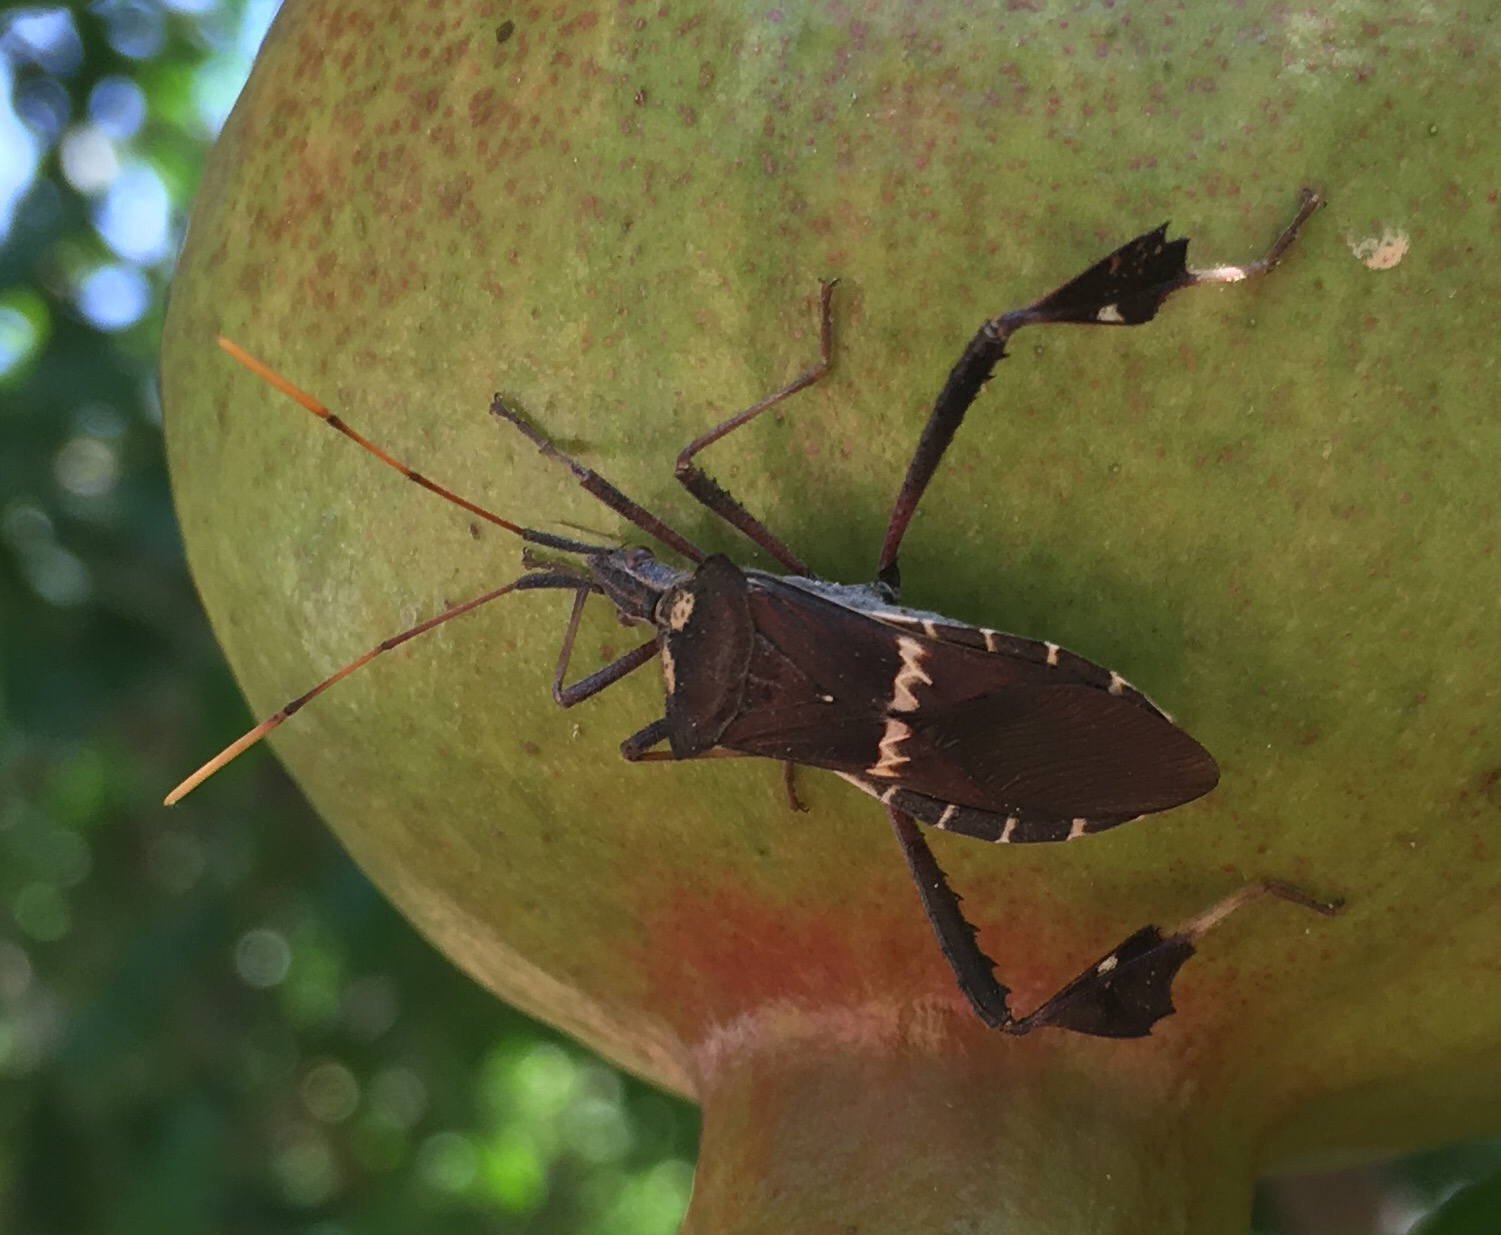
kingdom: Animalia
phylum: Arthropoda
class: Insecta
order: Hemiptera
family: Coreidae
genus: Leptoglossus
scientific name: Leptoglossus zonatus
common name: Large-legged bug
